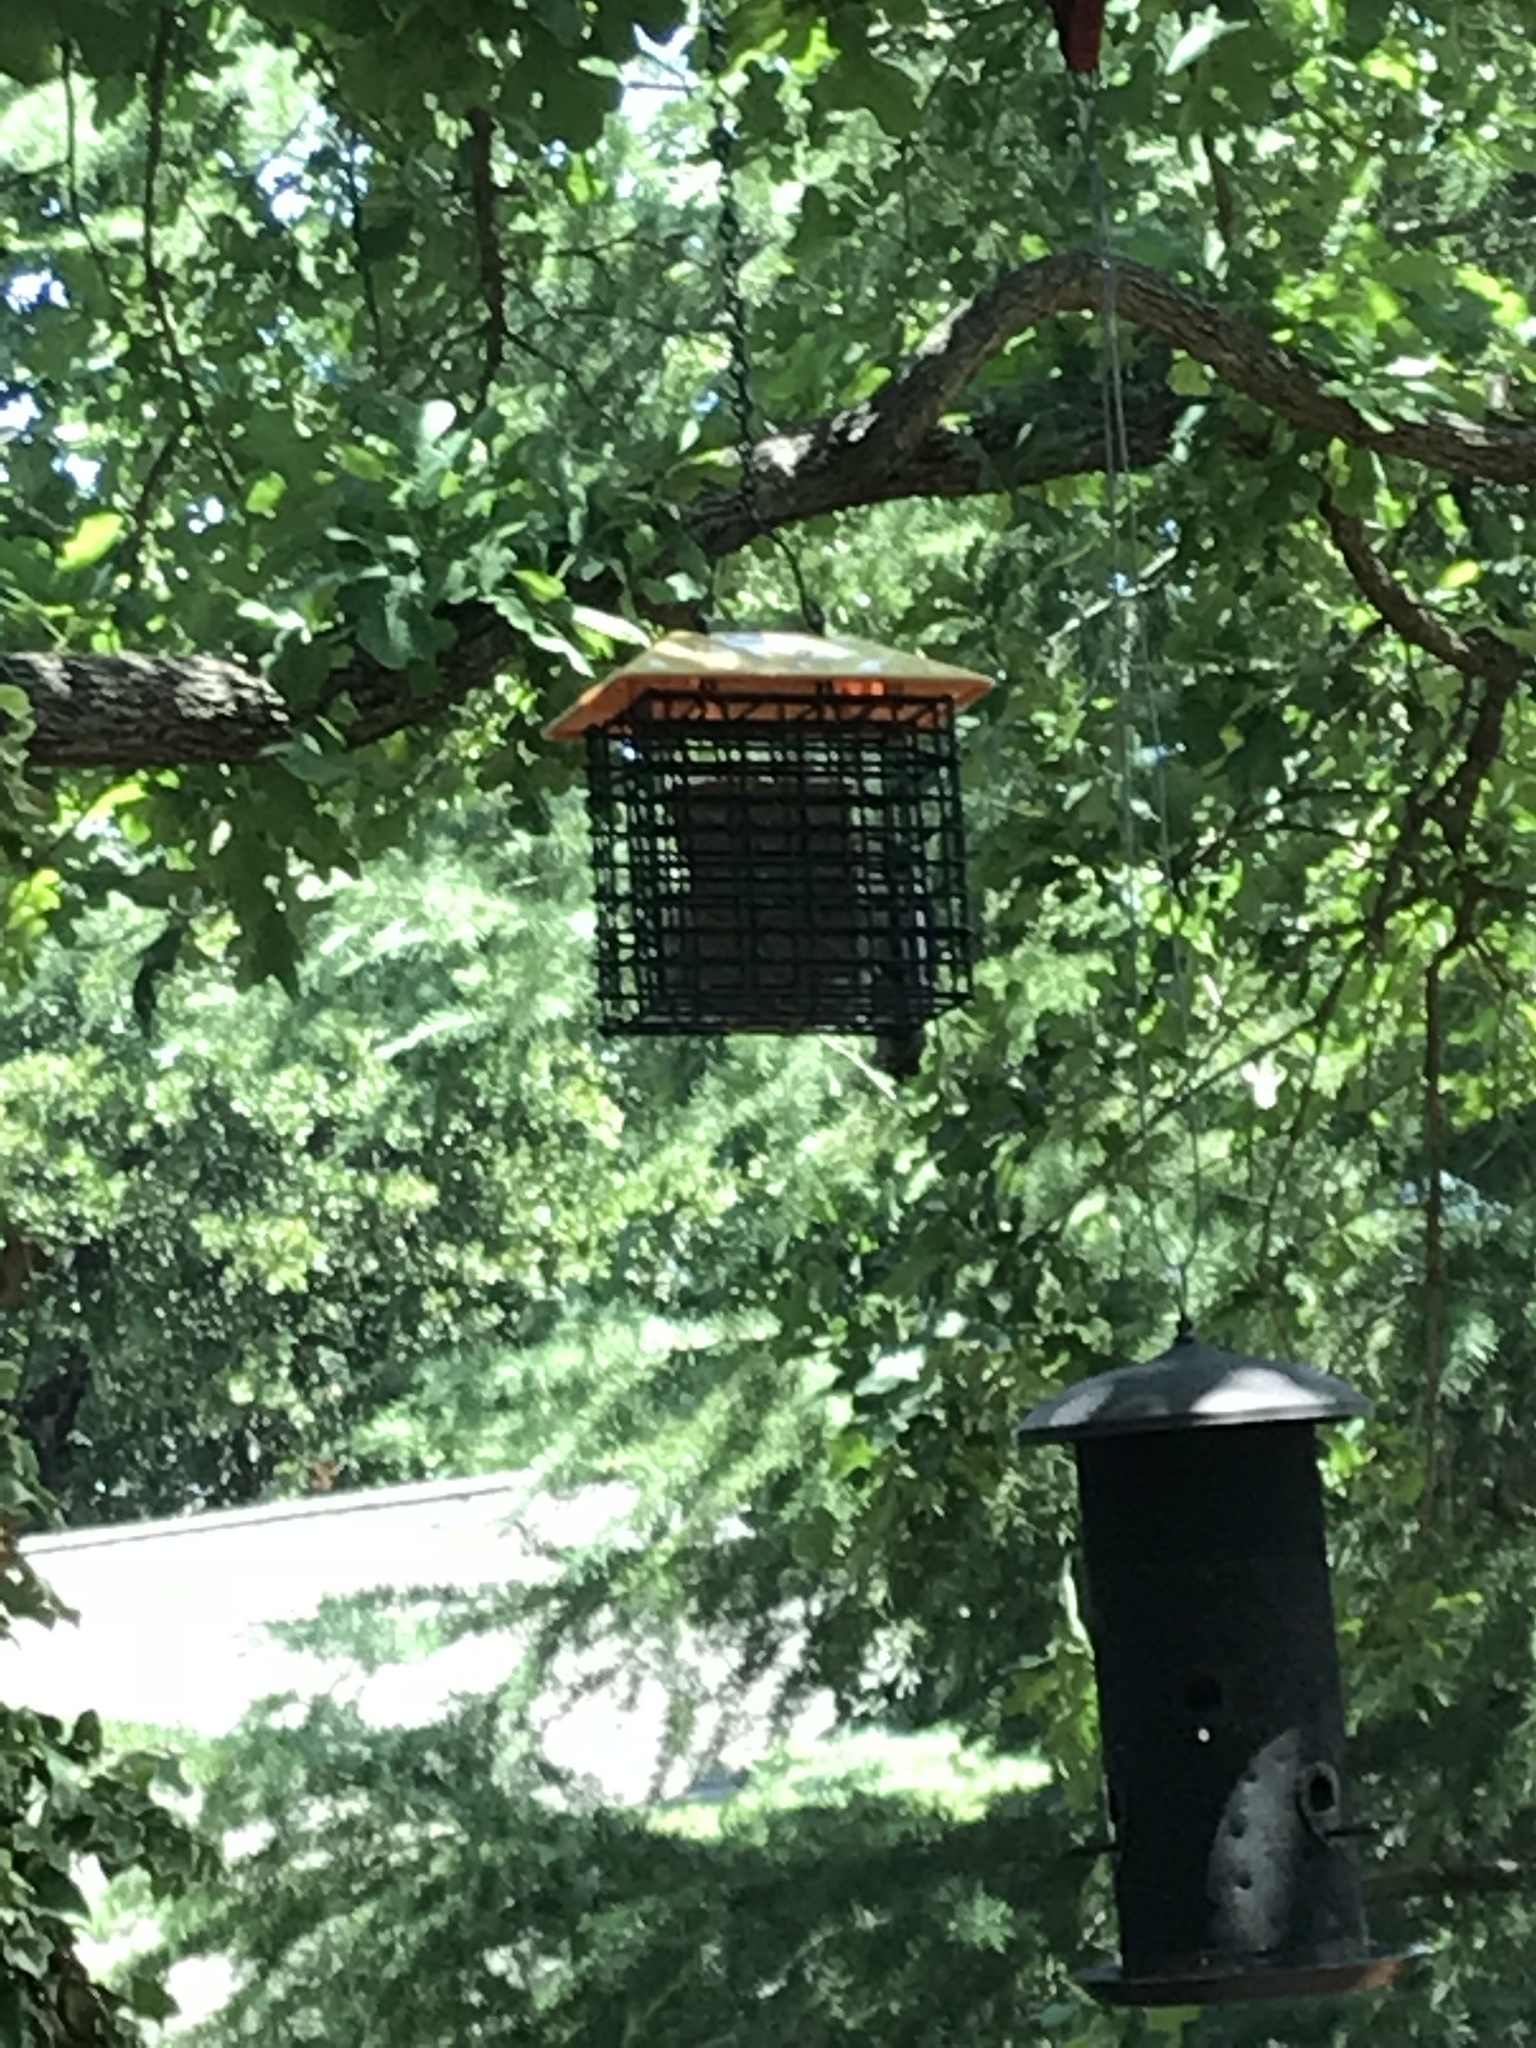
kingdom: Animalia
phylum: Chordata
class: Aves
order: Piciformes
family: Picidae
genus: Dryobates
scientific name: Dryobates pubescens
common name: Downy woodpecker
